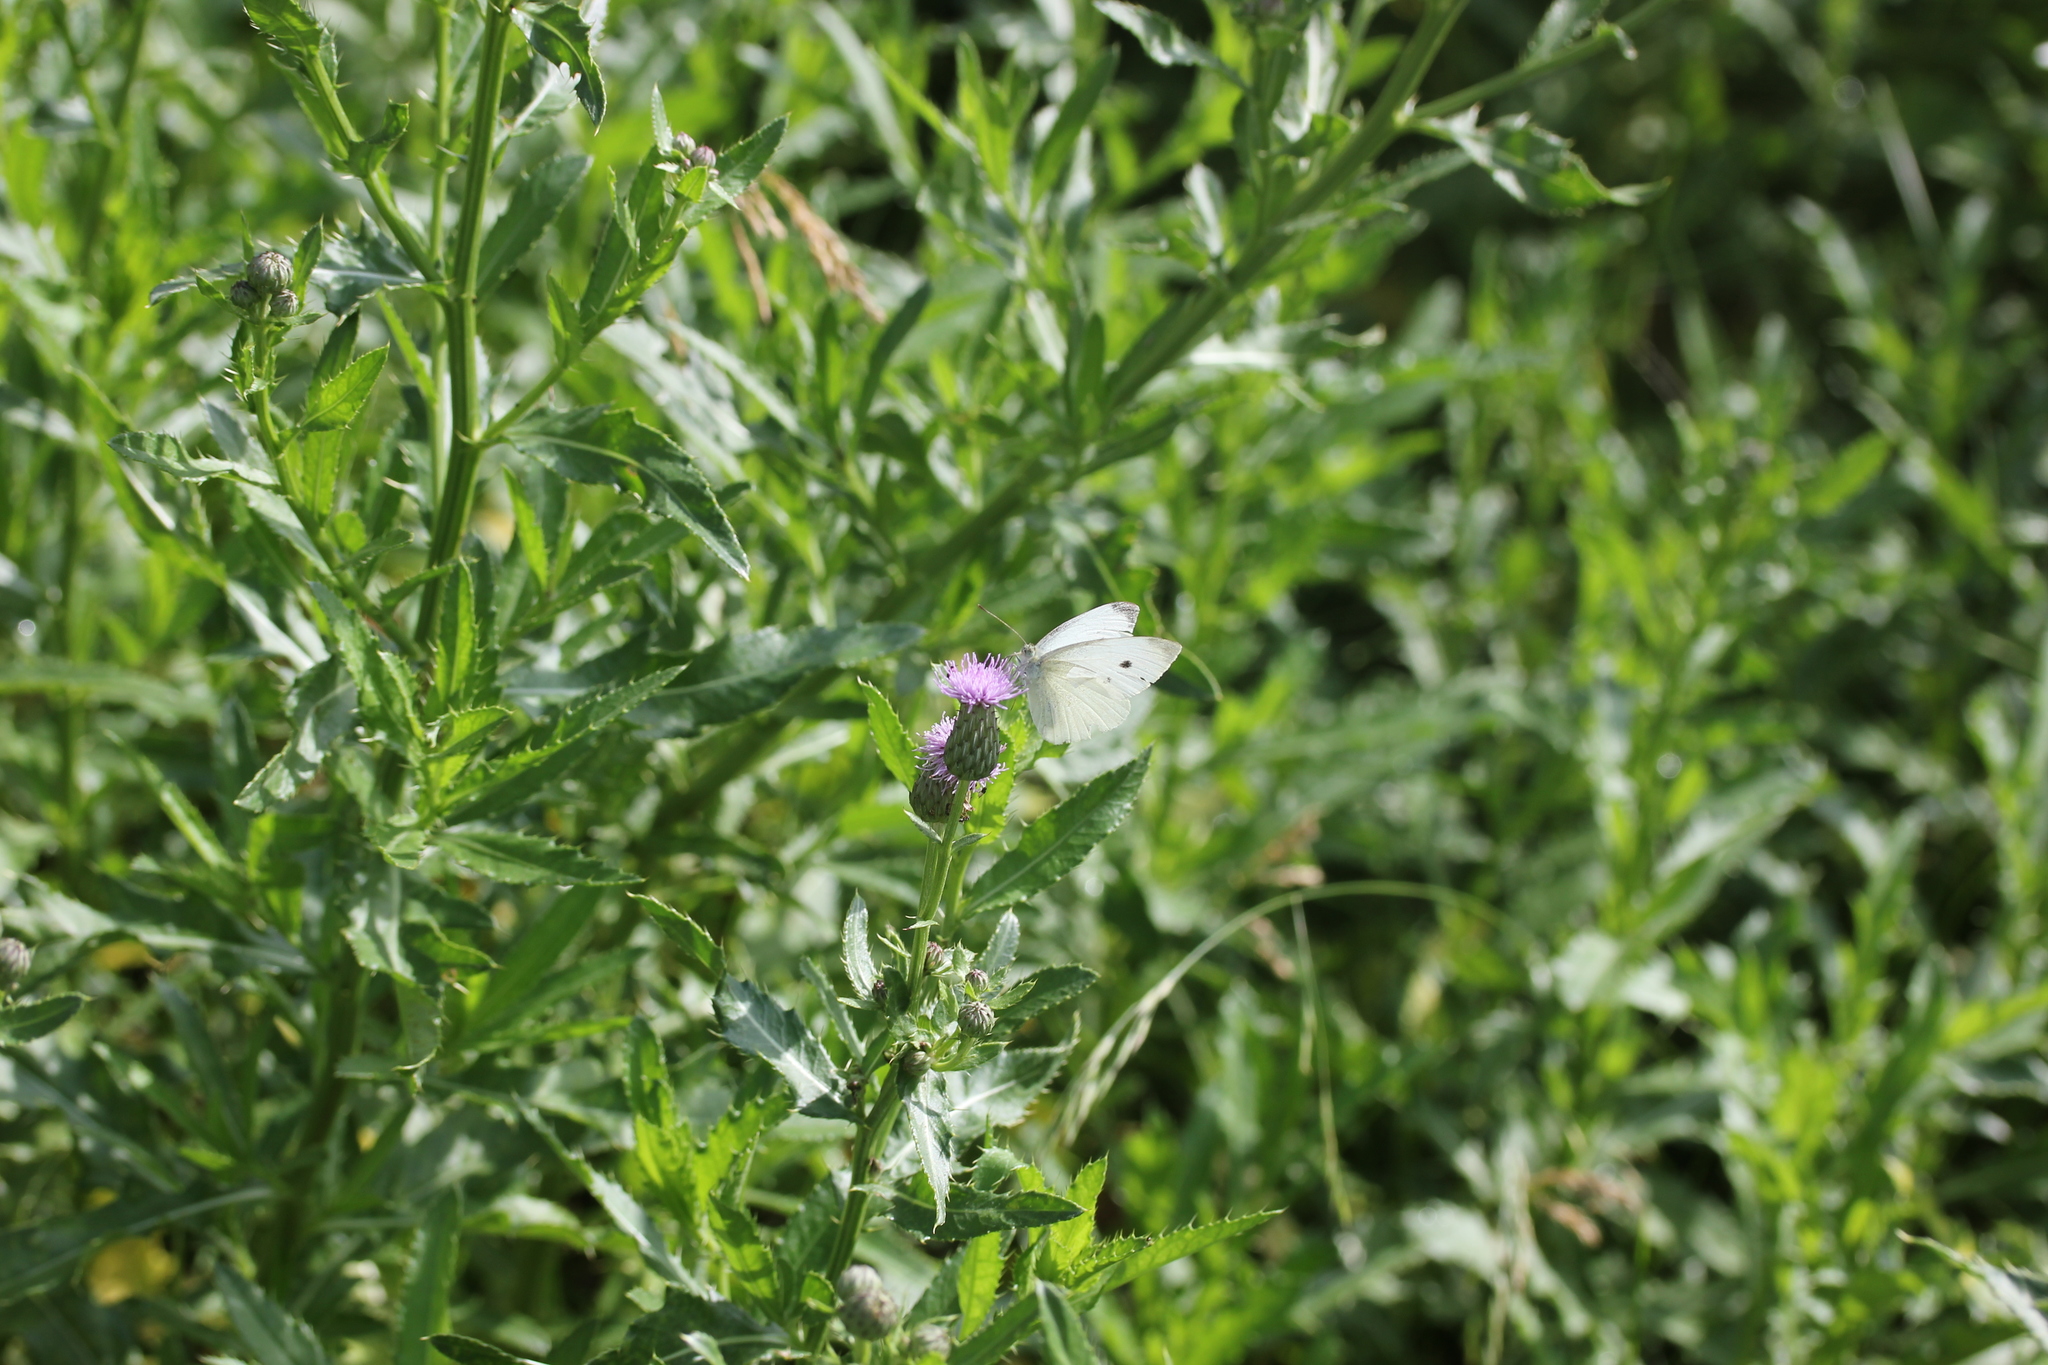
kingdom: Plantae
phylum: Tracheophyta
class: Magnoliopsida
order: Asterales
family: Asteraceae
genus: Cirsium
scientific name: Cirsium arvense
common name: Creeping thistle
